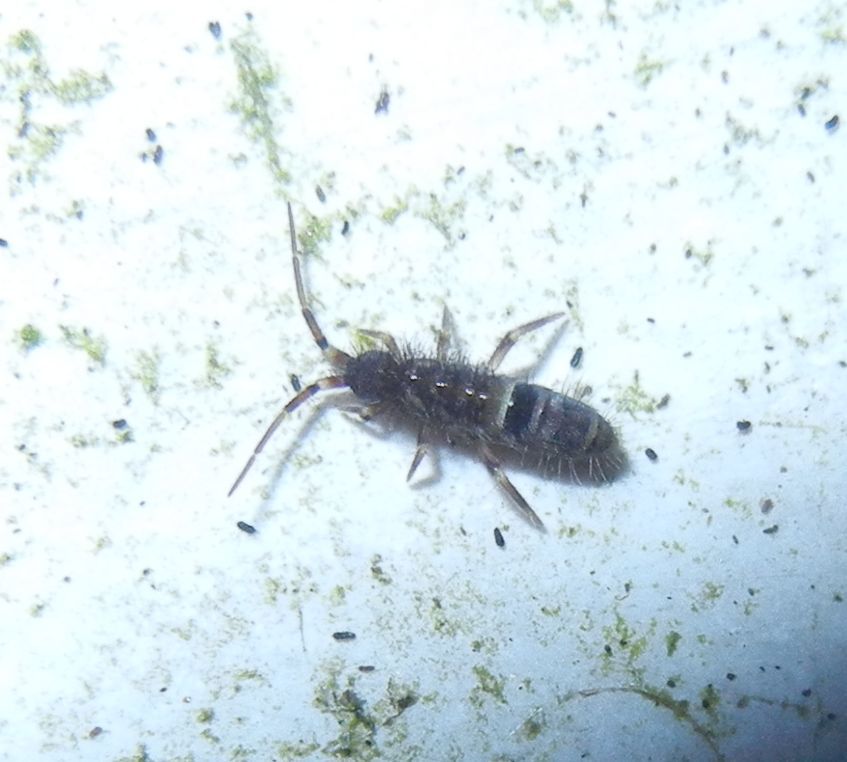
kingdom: Animalia
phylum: Arthropoda
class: Collembola
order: Entomobryomorpha
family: Orchesellidae
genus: Orchesella
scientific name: Orchesella cincta
